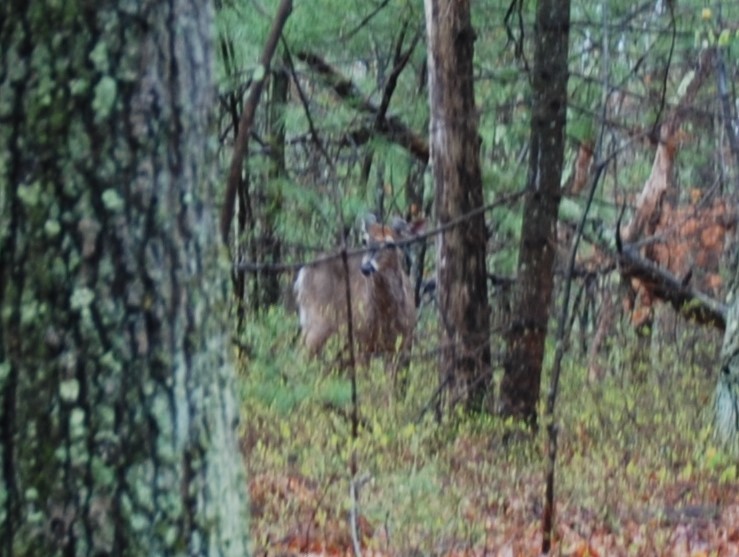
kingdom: Animalia
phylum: Chordata
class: Mammalia
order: Artiodactyla
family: Cervidae
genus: Odocoileus
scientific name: Odocoileus virginianus
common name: White-tailed deer
